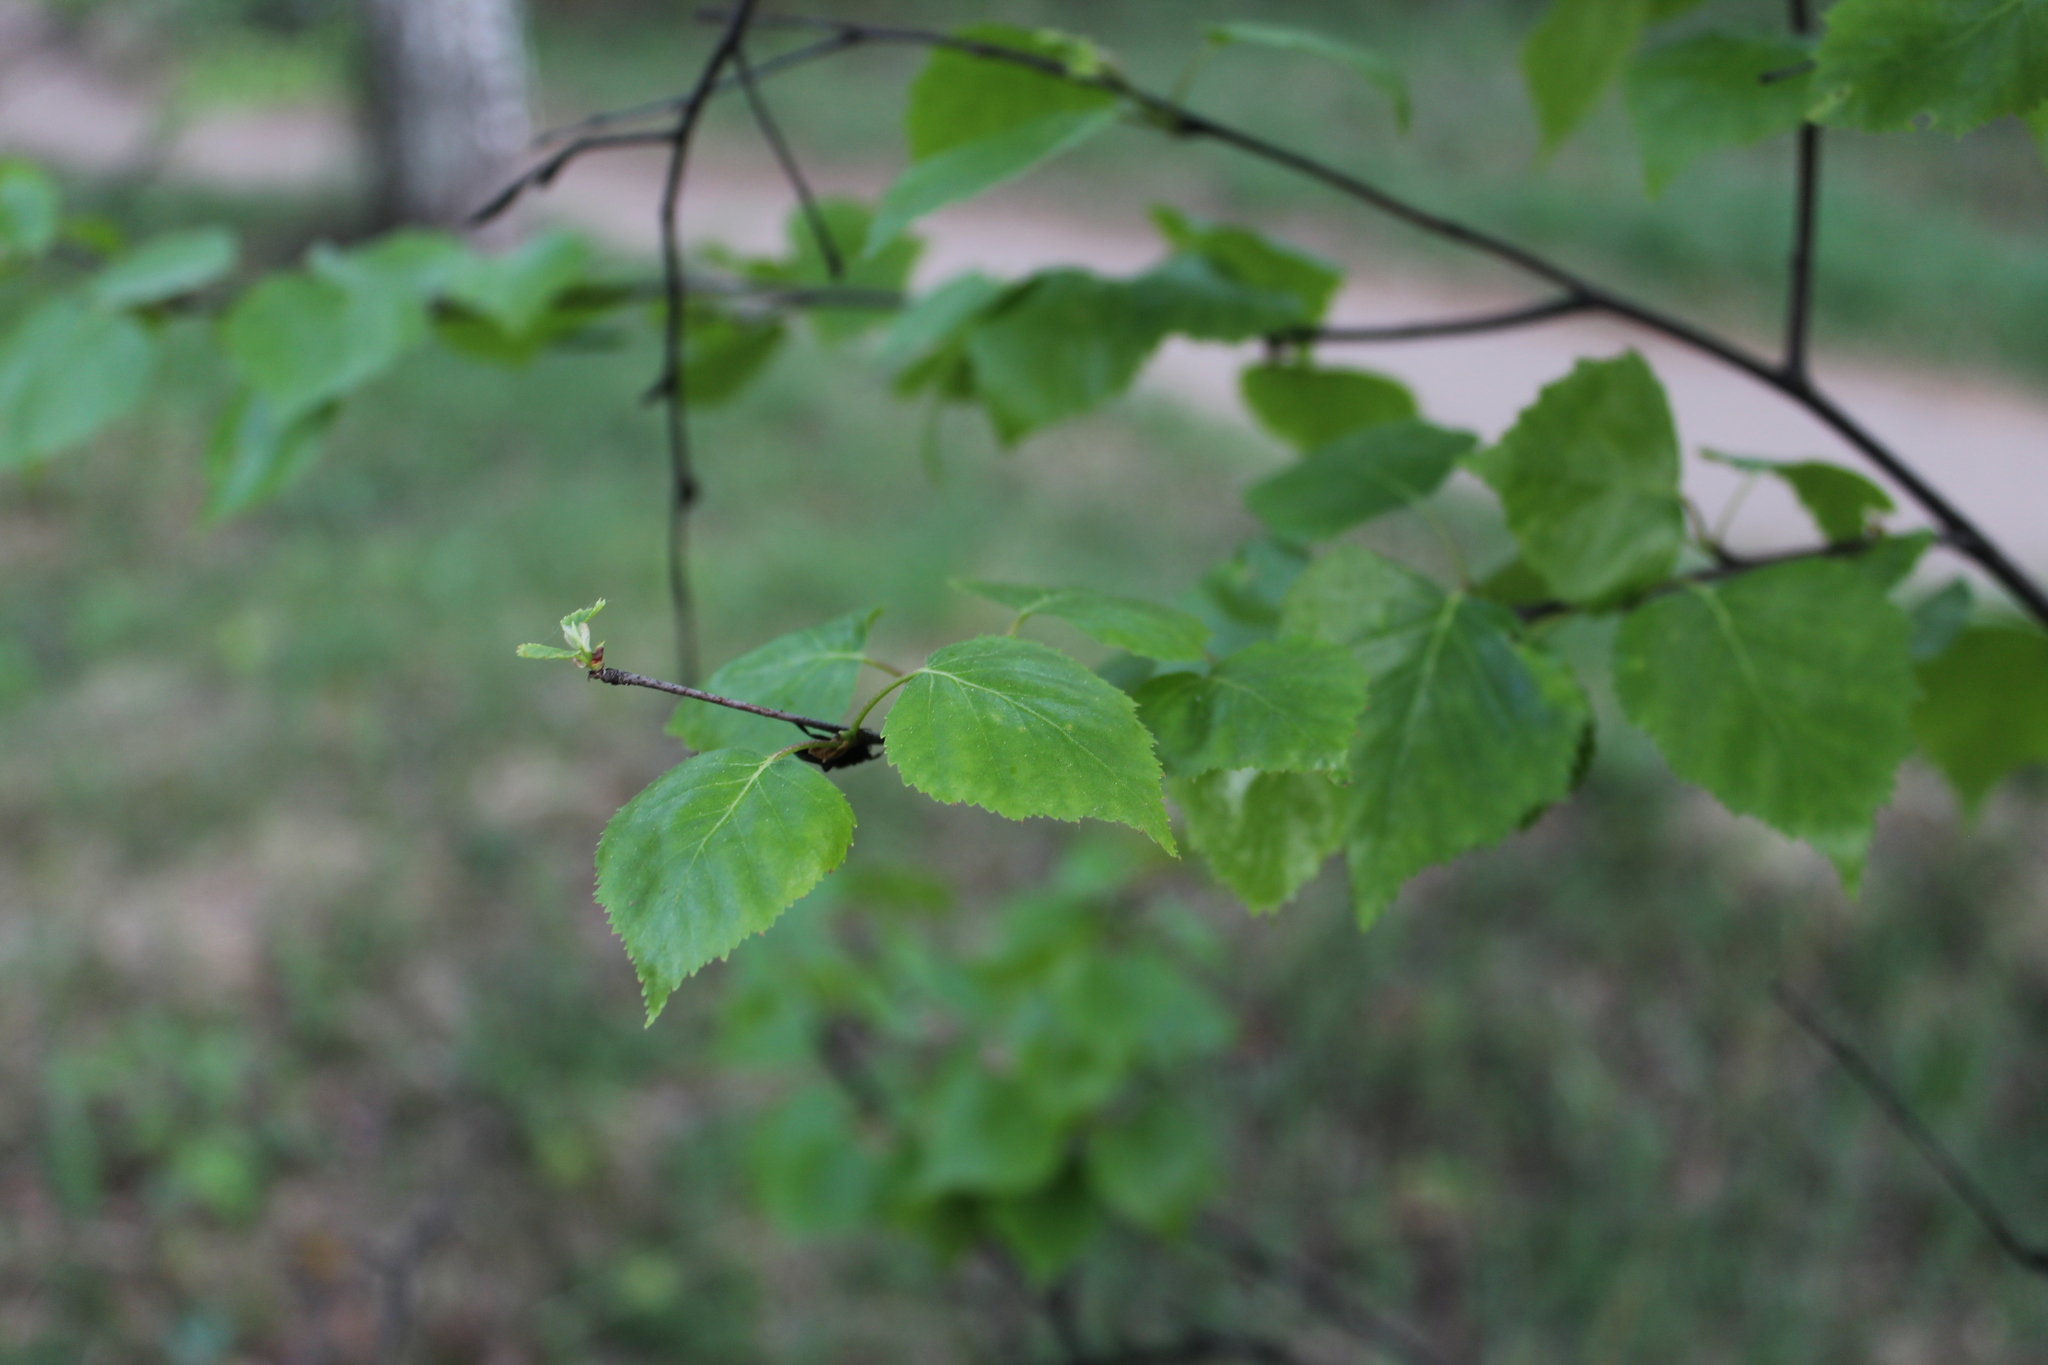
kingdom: Plantae
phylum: Tracheophyta
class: Magnoliopsida
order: Fagales
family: Betulaceae
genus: Betula
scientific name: Betula pendula
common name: Silver birch
